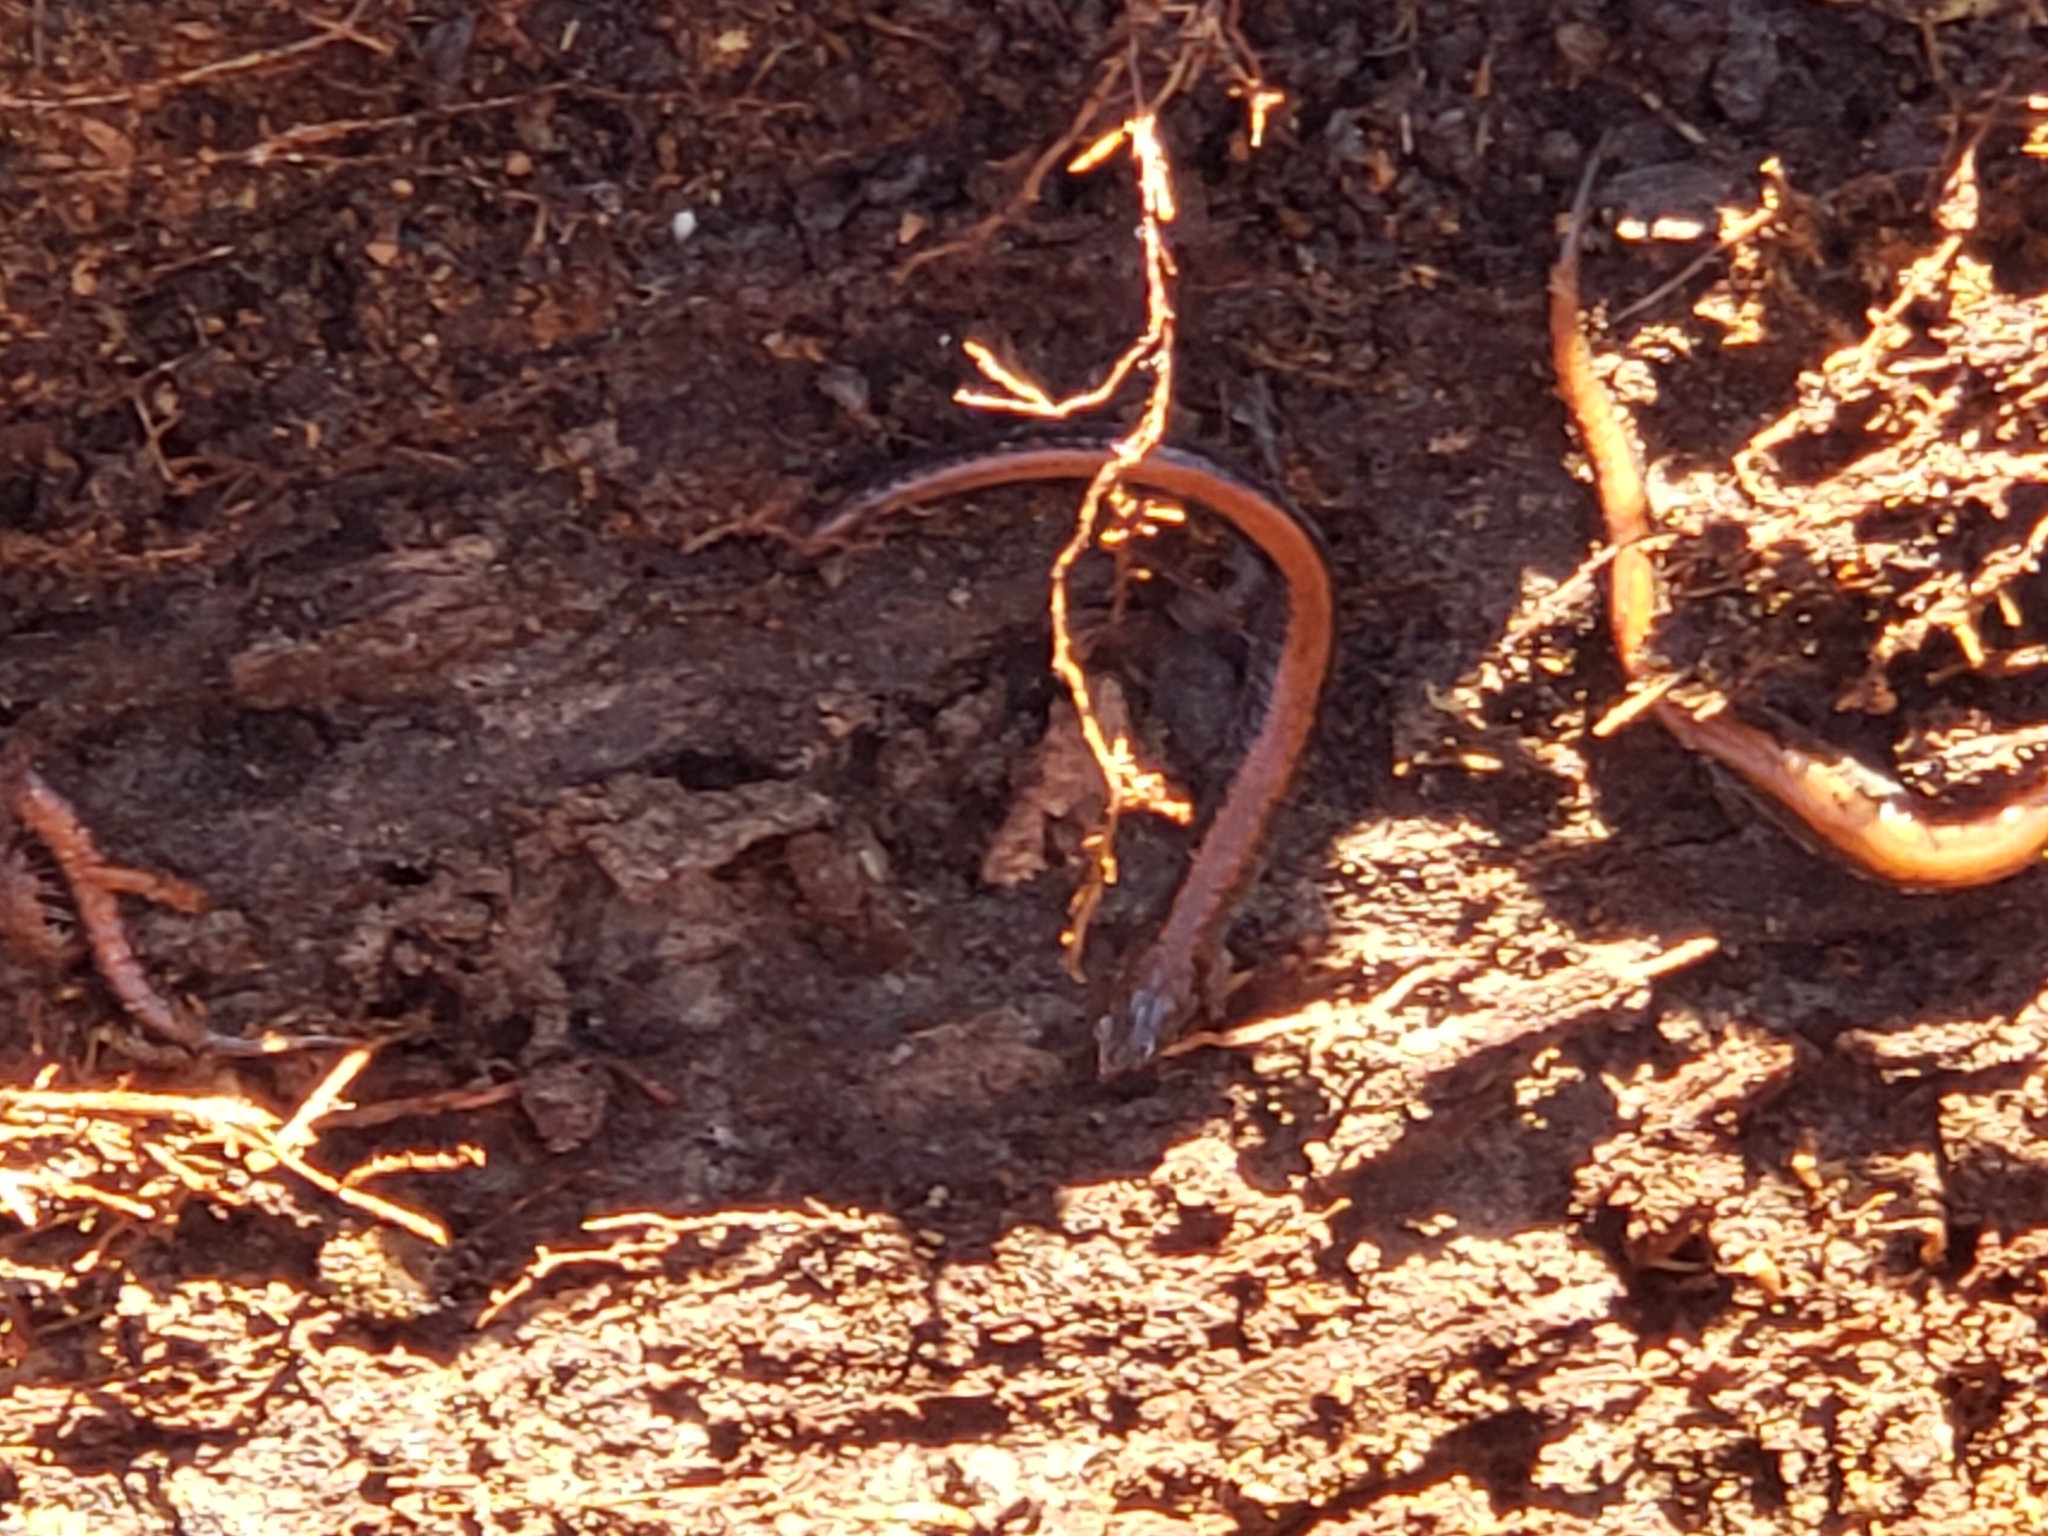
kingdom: Animalia
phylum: Chordata
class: Amphibia
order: Caudata
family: Plethodontidae
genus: Plethodon
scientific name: Plethodon cinereus
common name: Redback salamander
